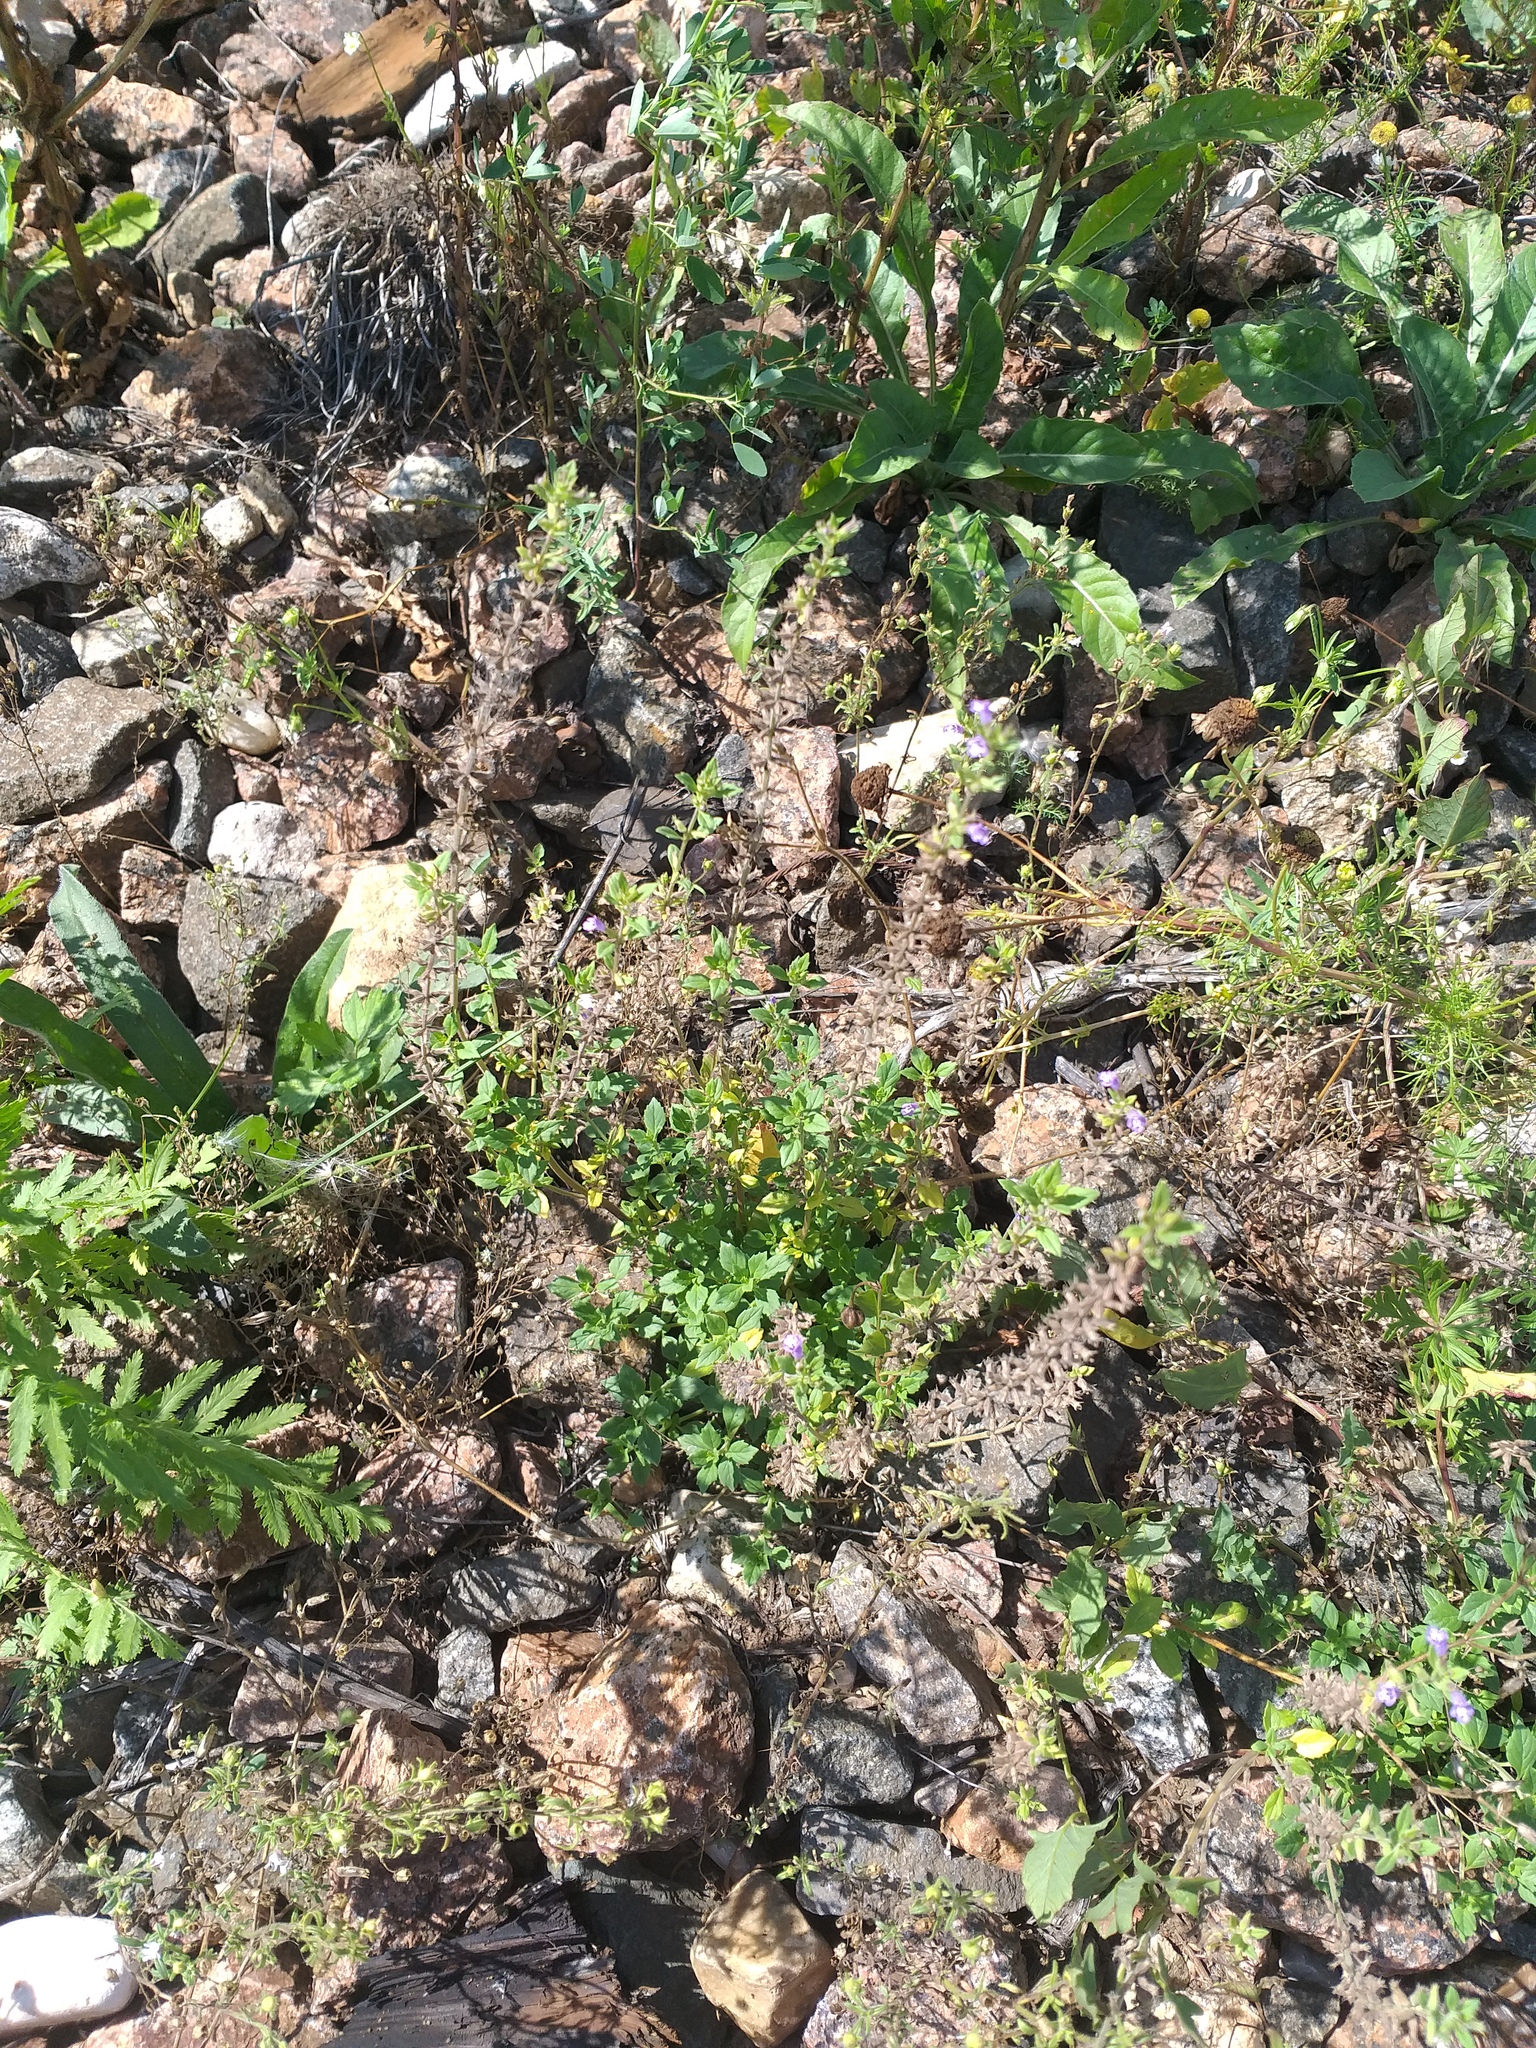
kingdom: Plantae
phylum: Tracheophyta
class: Magnoliopsida
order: Lamiales
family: Lamiaceae
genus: Clinopodium
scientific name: Clinopodium acinos
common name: Basil thyme
